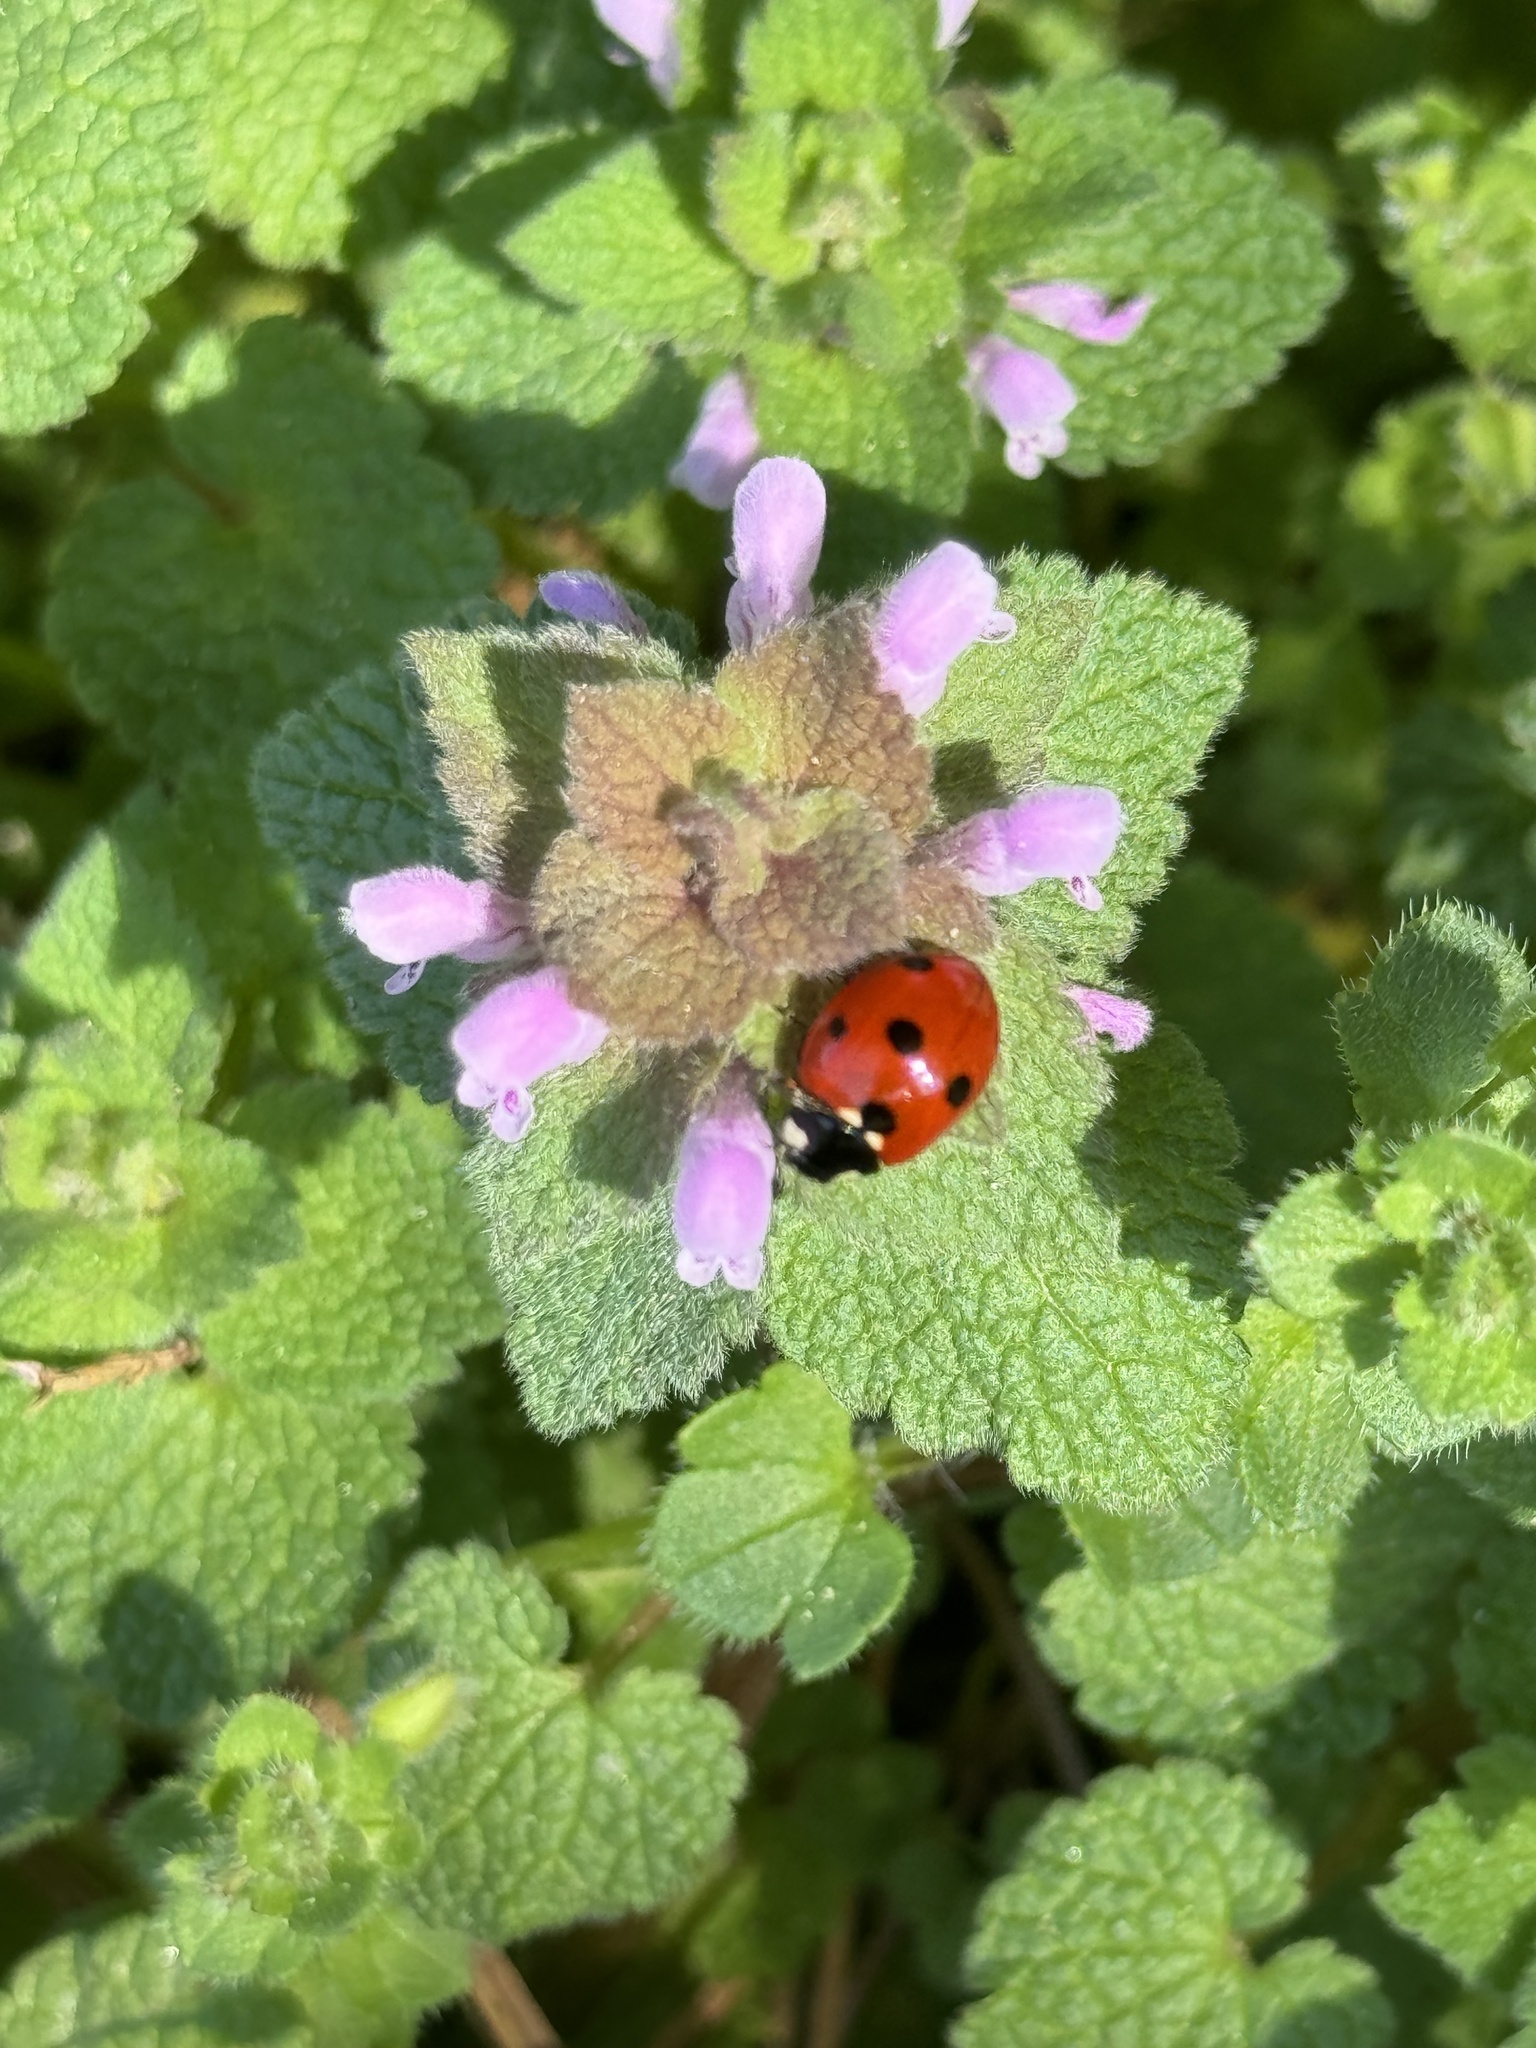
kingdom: Animalia
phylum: Arthropoda
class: Insecta
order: Coleoptera
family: Coccinellidae
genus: Coccinella
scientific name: Coccinella septempunctata
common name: Sevenspotted lady beetle
